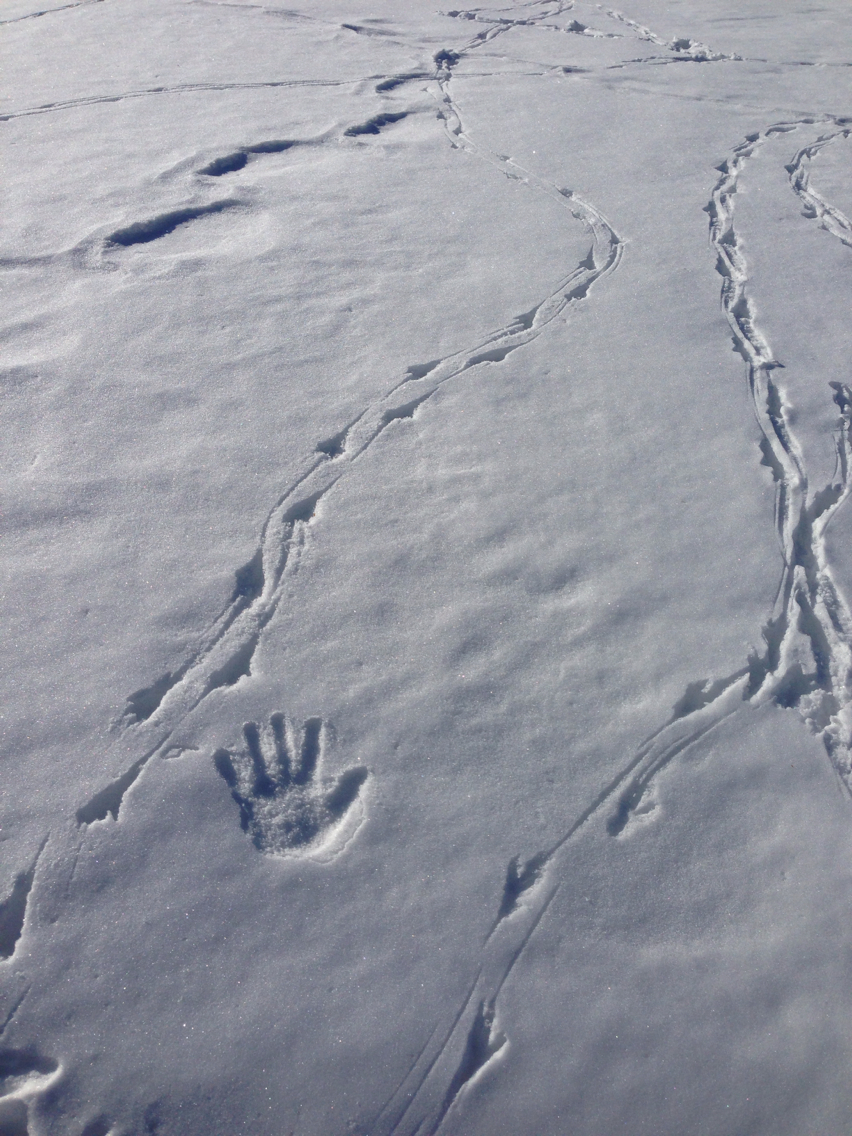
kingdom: Animalia
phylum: Chordata
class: Aves
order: Passeriformes
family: Corvidae
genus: Corvus
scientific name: Corvus brachyrhynchos
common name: American crow
